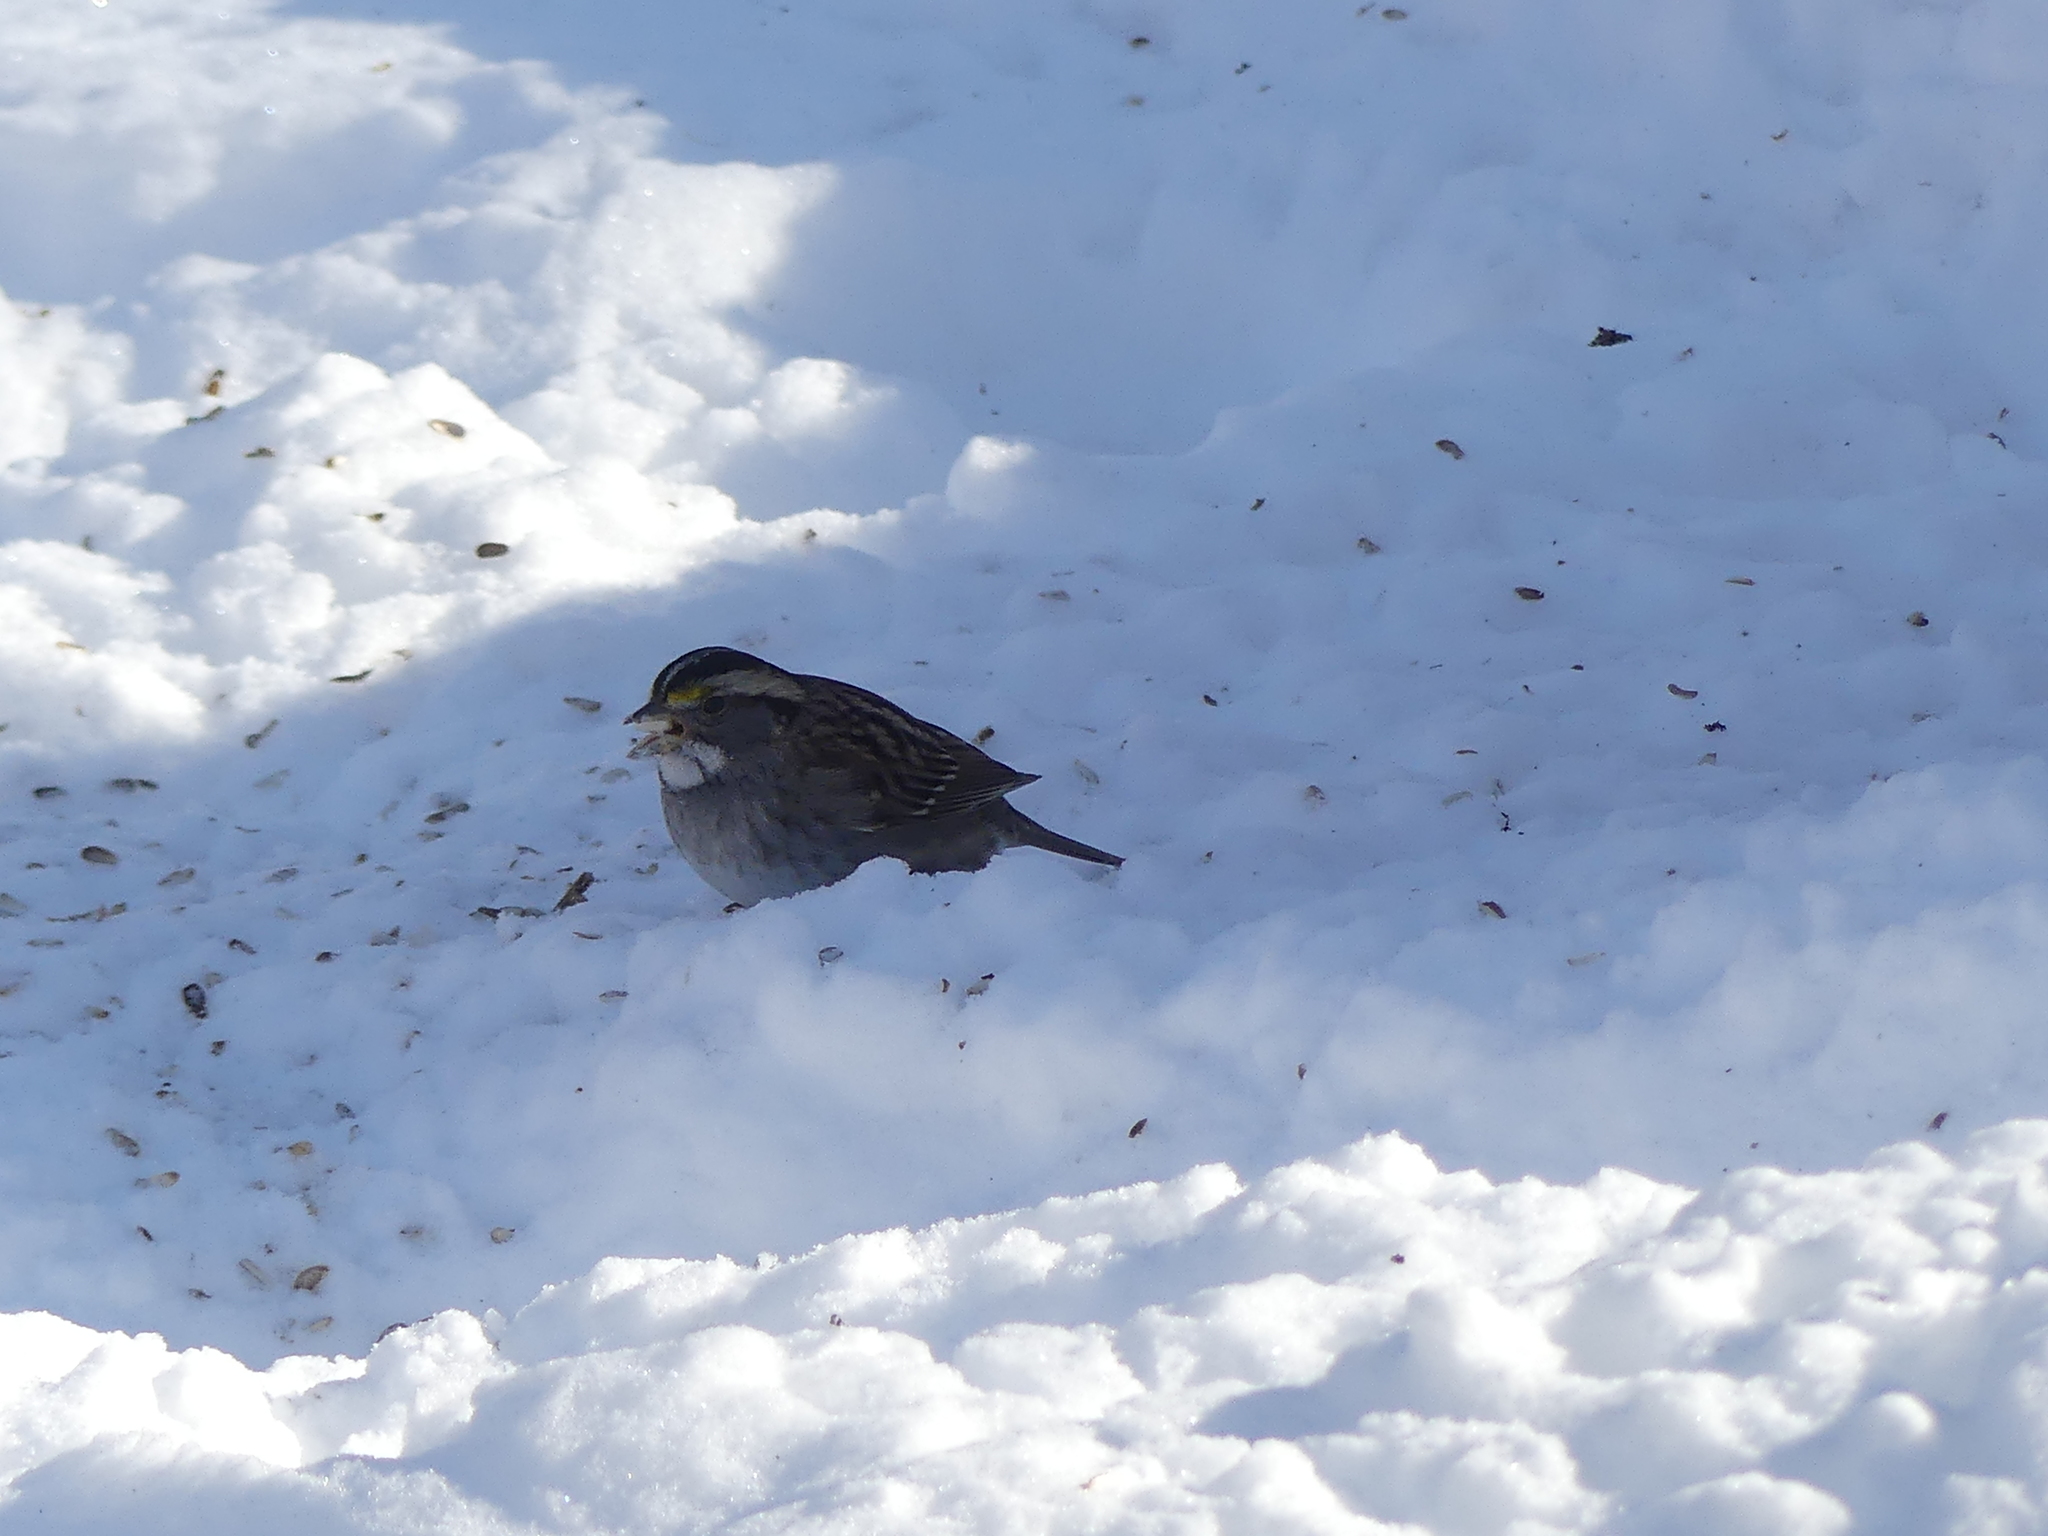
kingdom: Animalia
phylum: Chordata
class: Aves
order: Passeriformes
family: Passerellidae
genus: Zonotrichia
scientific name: Zonotrichia albicollis
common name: White-throated sparrow
